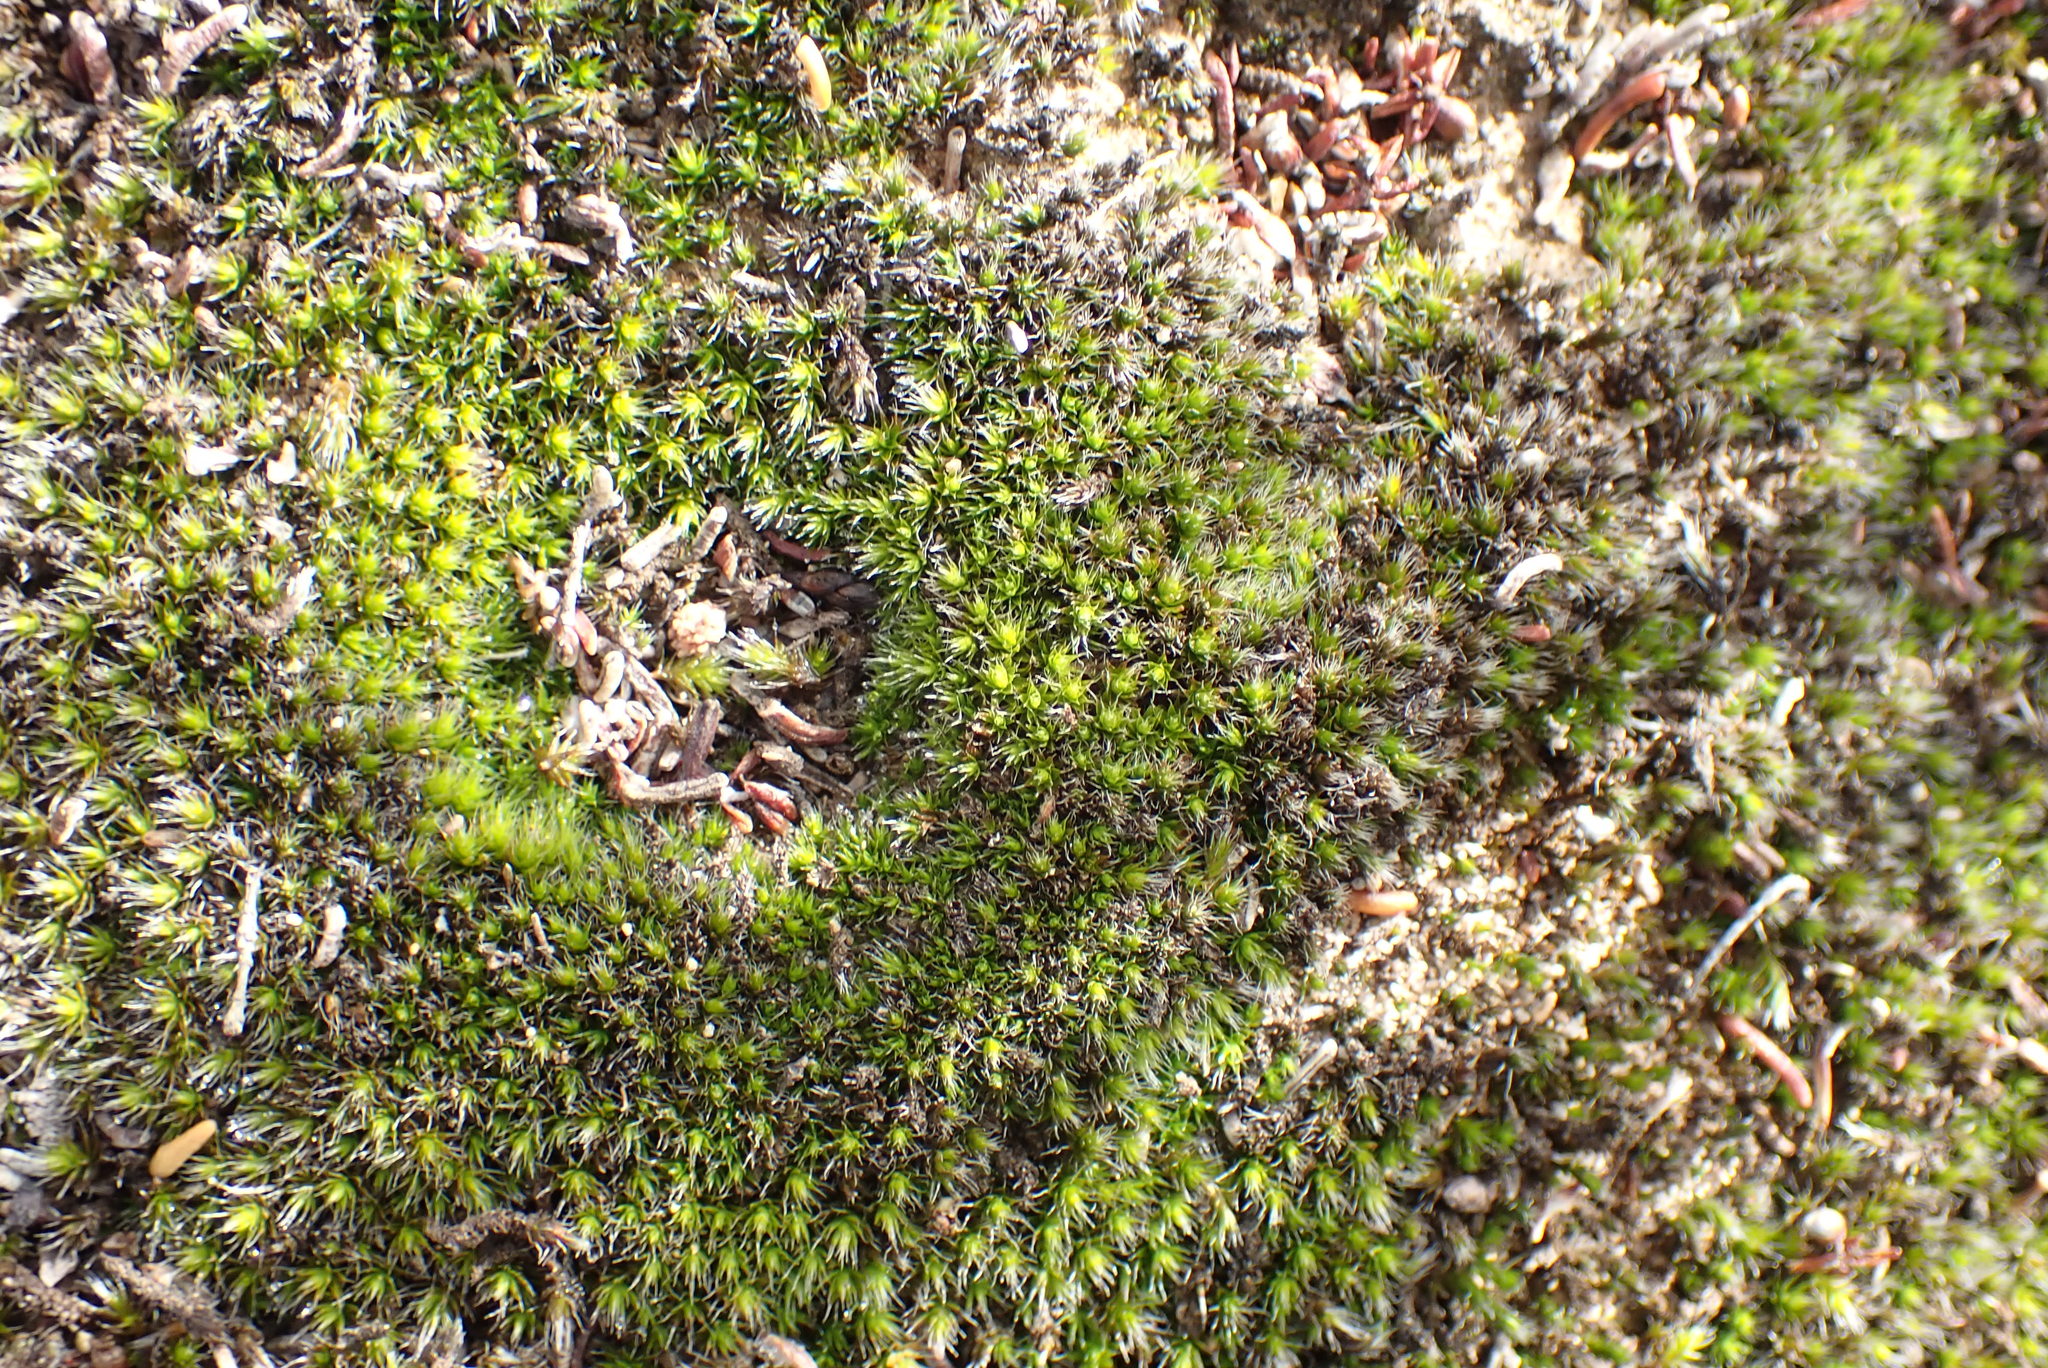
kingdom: Plantae
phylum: Bryophyta
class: Bryopsida
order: Grimmiales
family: Grimmiaceae
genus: Grimmia
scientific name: Grimmia laevigata
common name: Hoary grimmia
